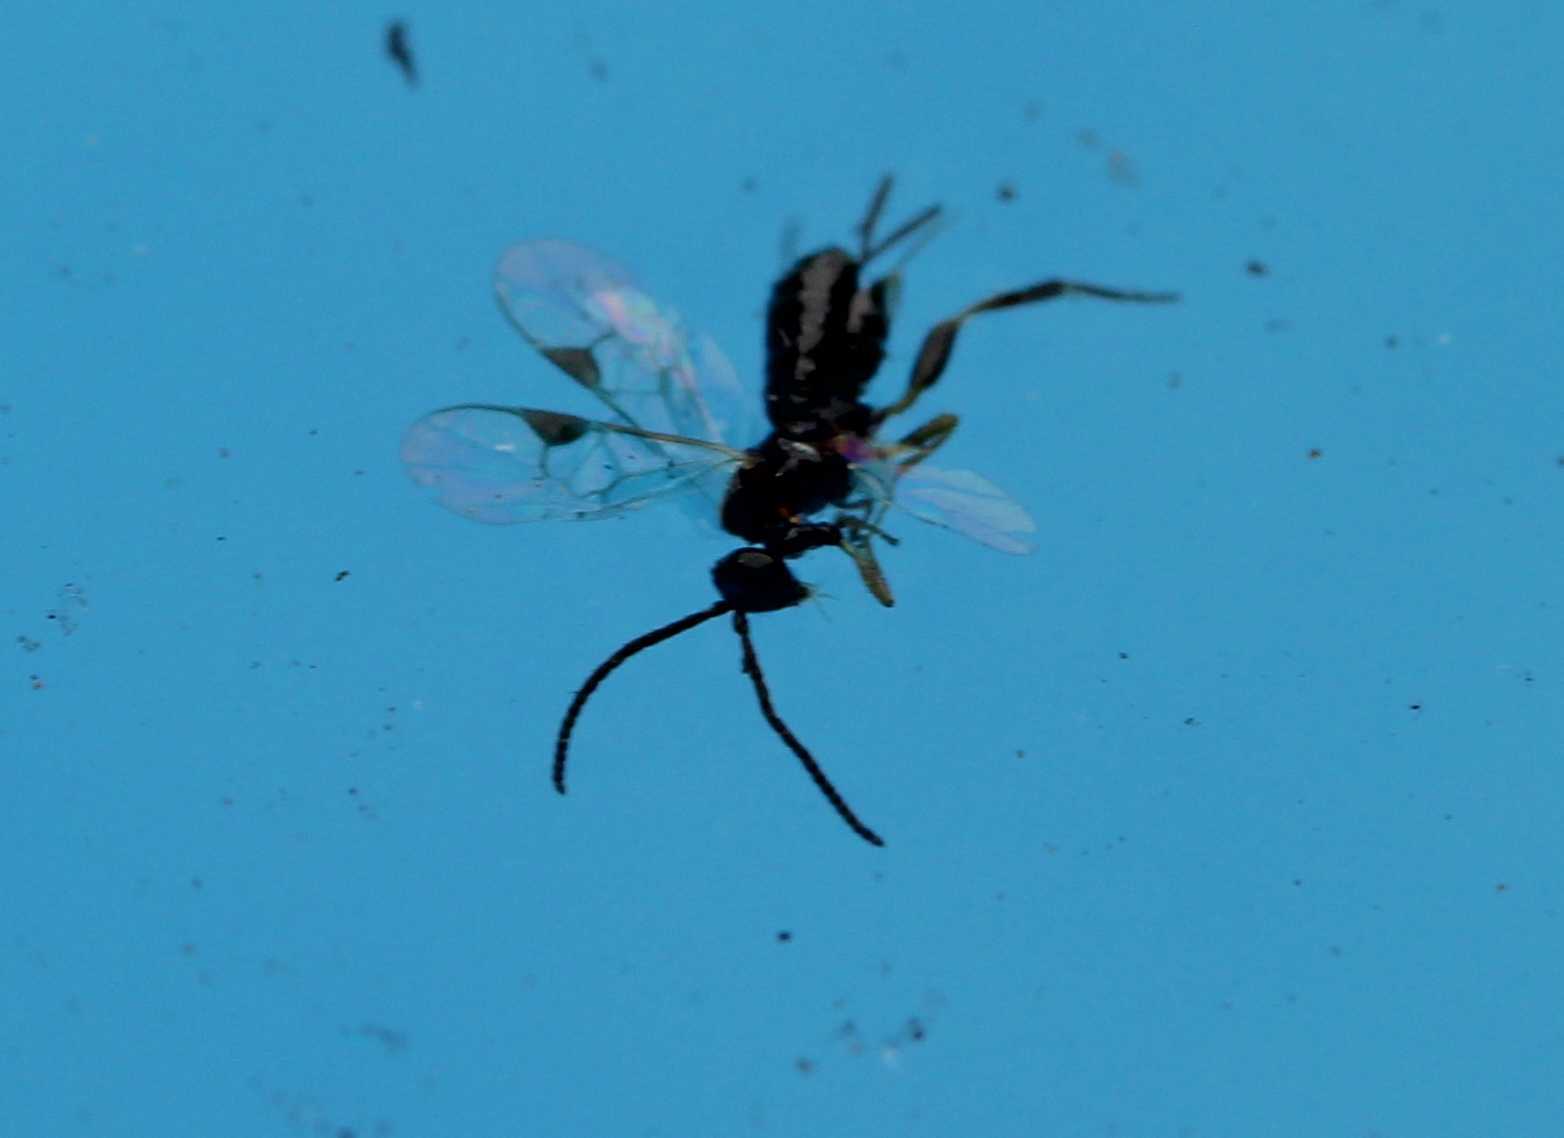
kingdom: Animalia
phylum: Arthropoda
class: Insecta
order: Hymenoptera
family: Braconidae
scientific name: Braconidae
